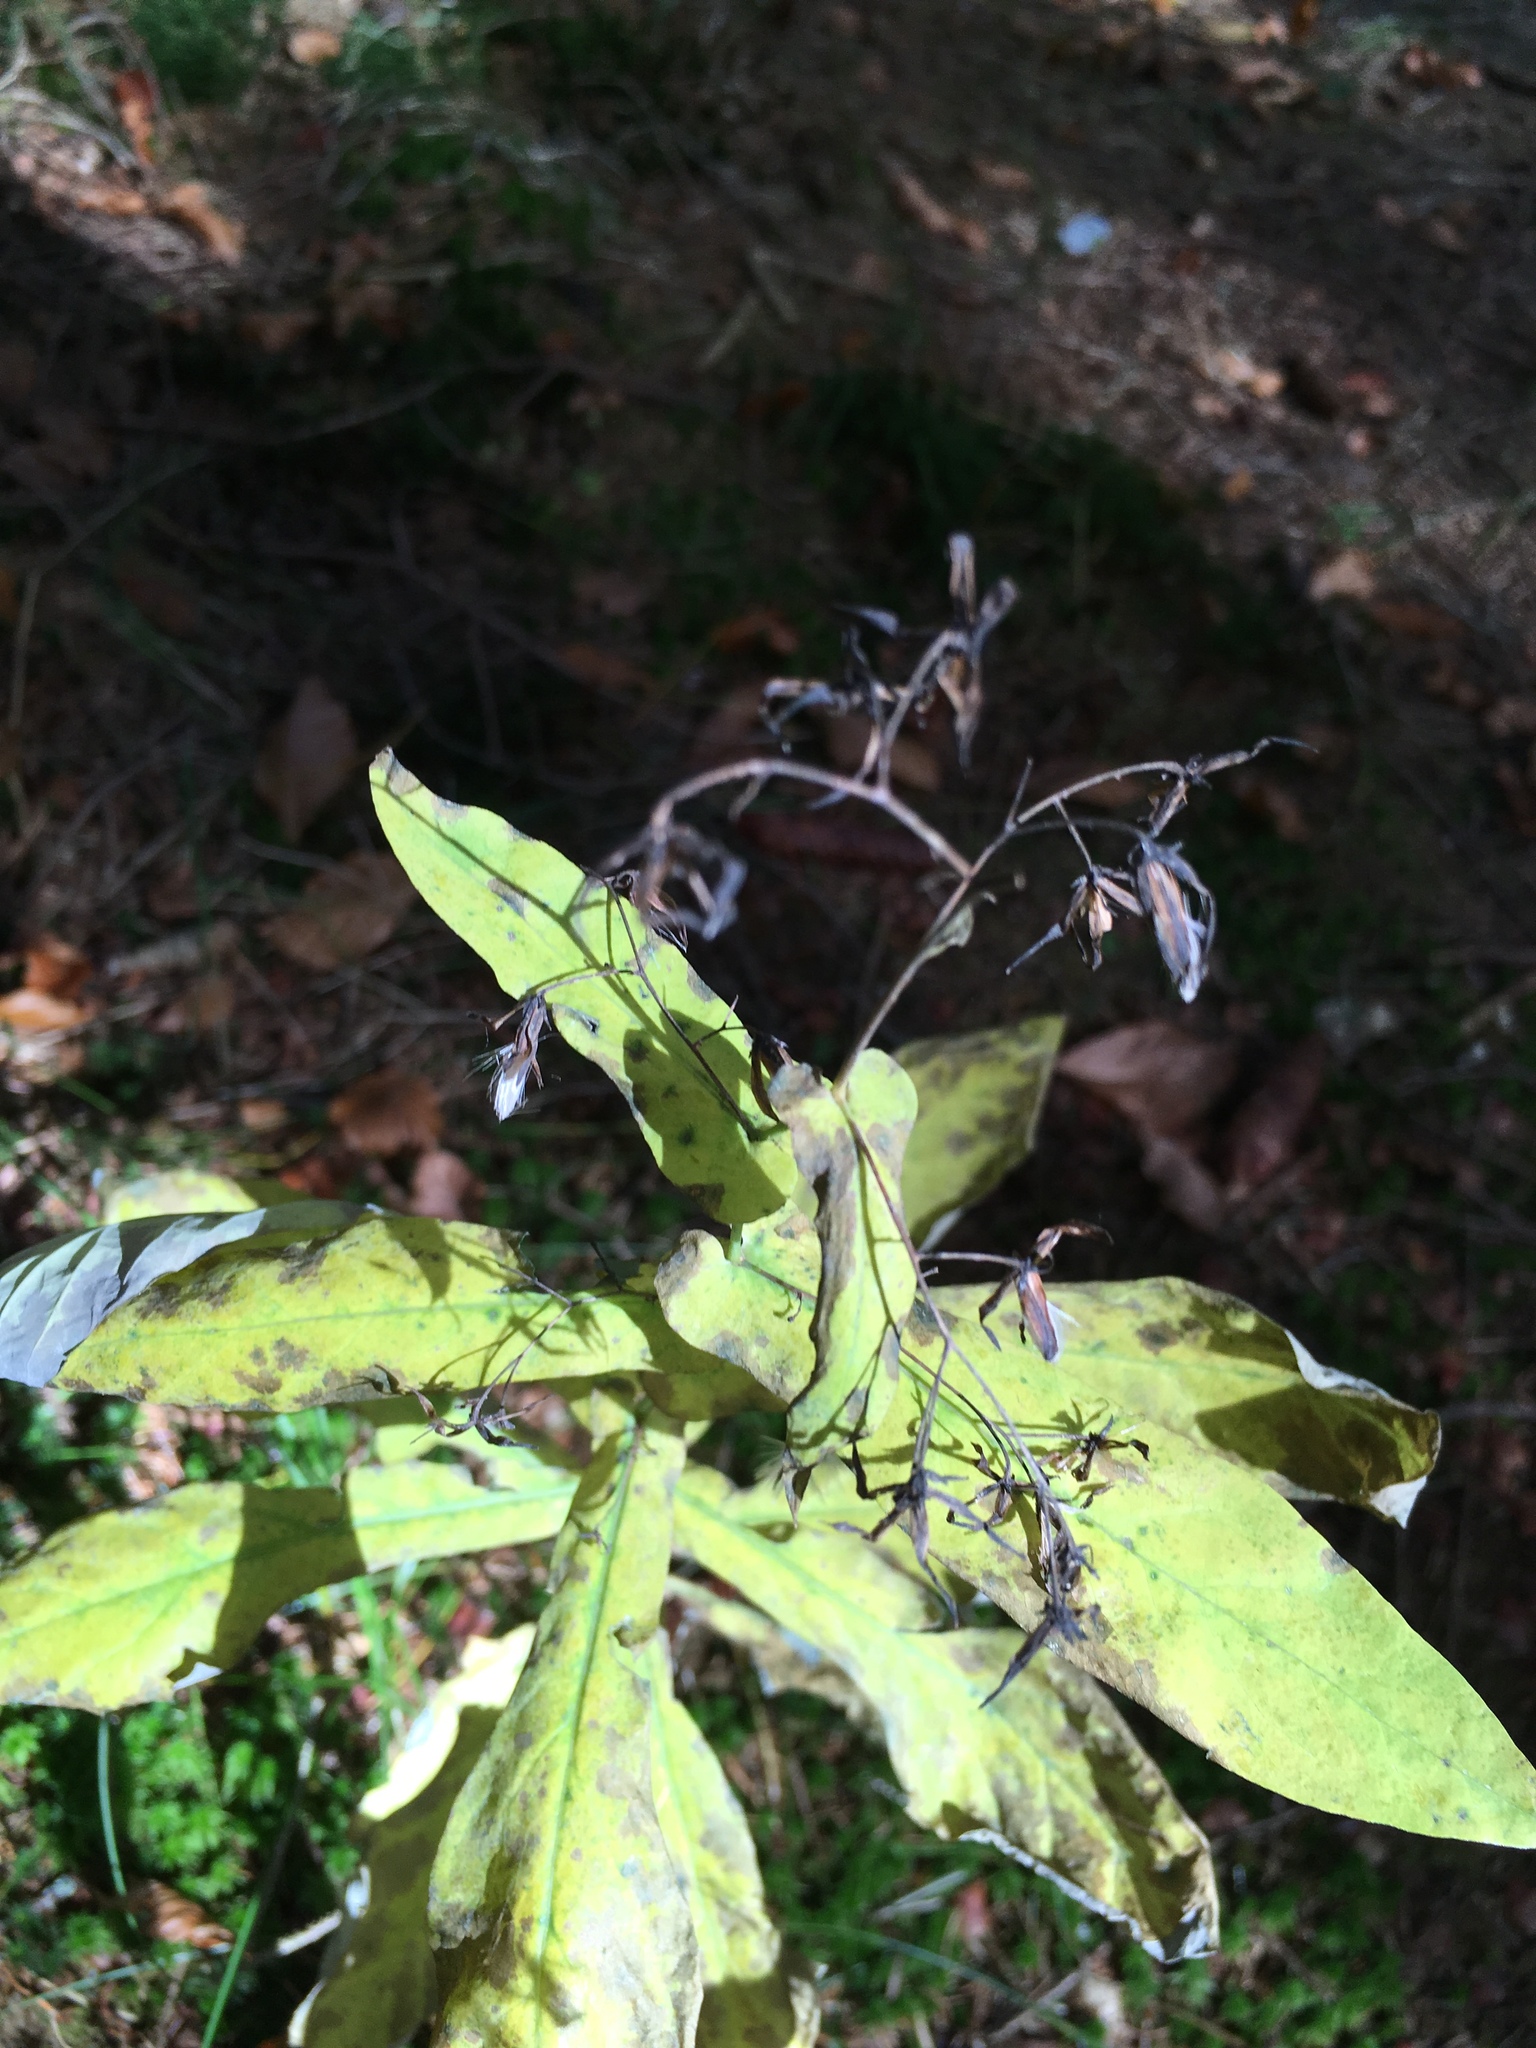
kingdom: Plantae
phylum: Tracheophyta
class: Magnoliopsida
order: Asterales
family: Asteraceae
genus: Prenanthes
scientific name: Prenanthes purpurea
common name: Purple lettuce
